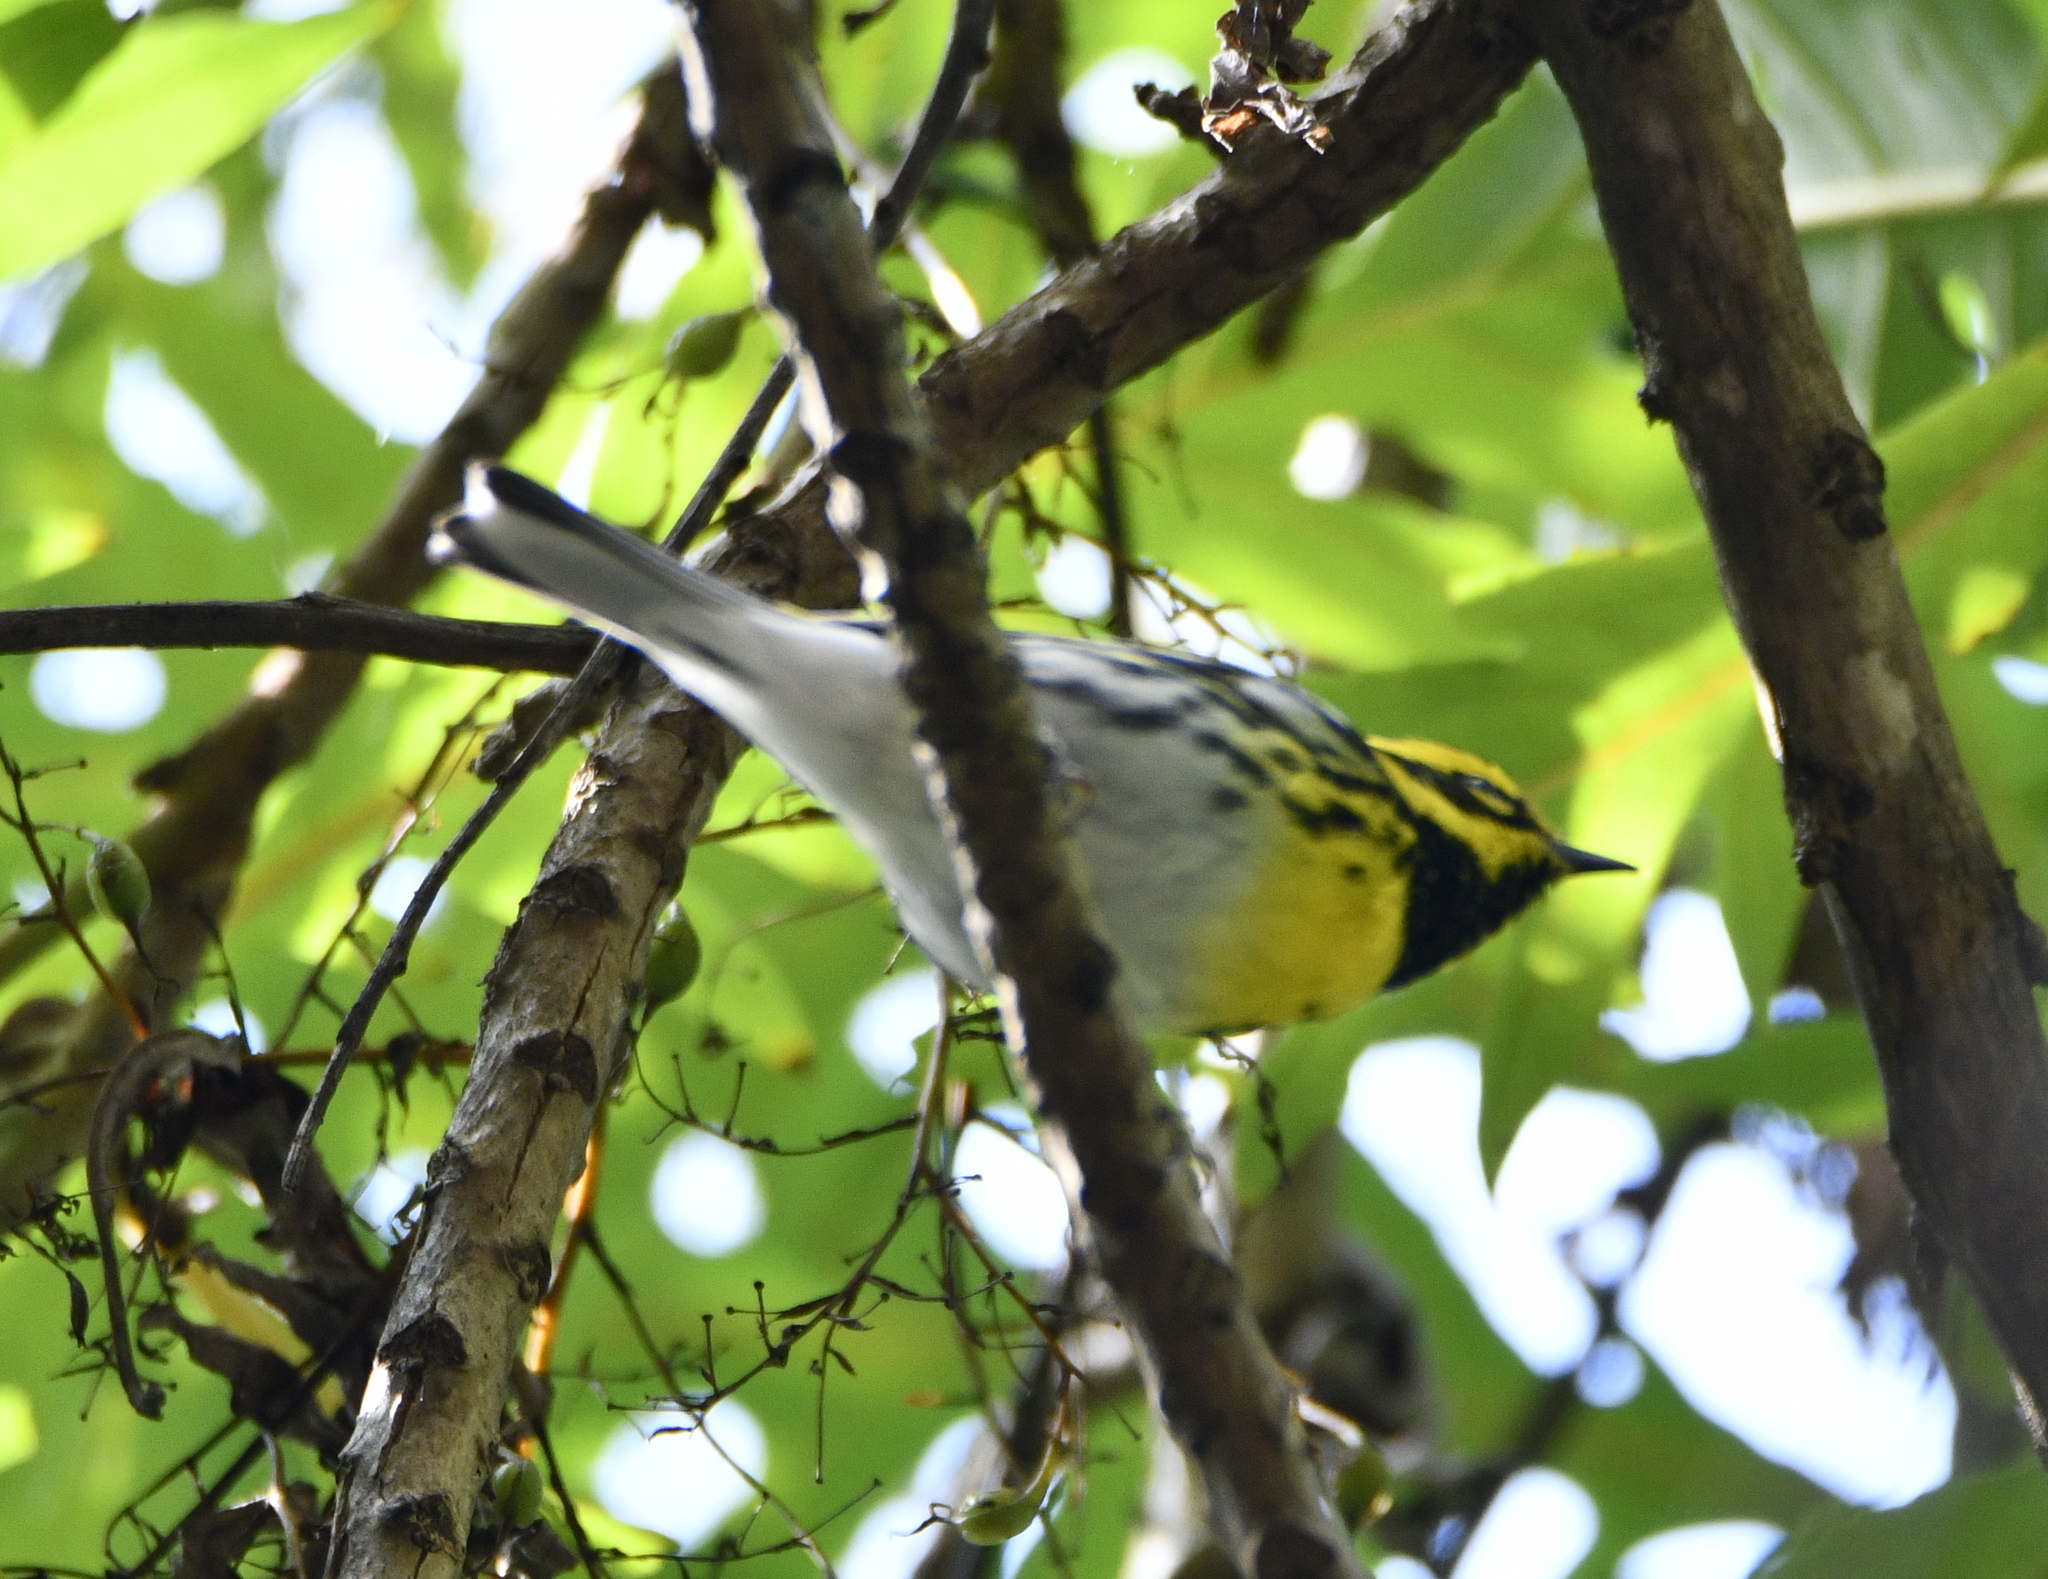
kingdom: Animalia
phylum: Chordata
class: Aves
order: Passeriformes
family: Parulidae
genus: Setophaga
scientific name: Setophaga townsendi
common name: Townsend's warbler
